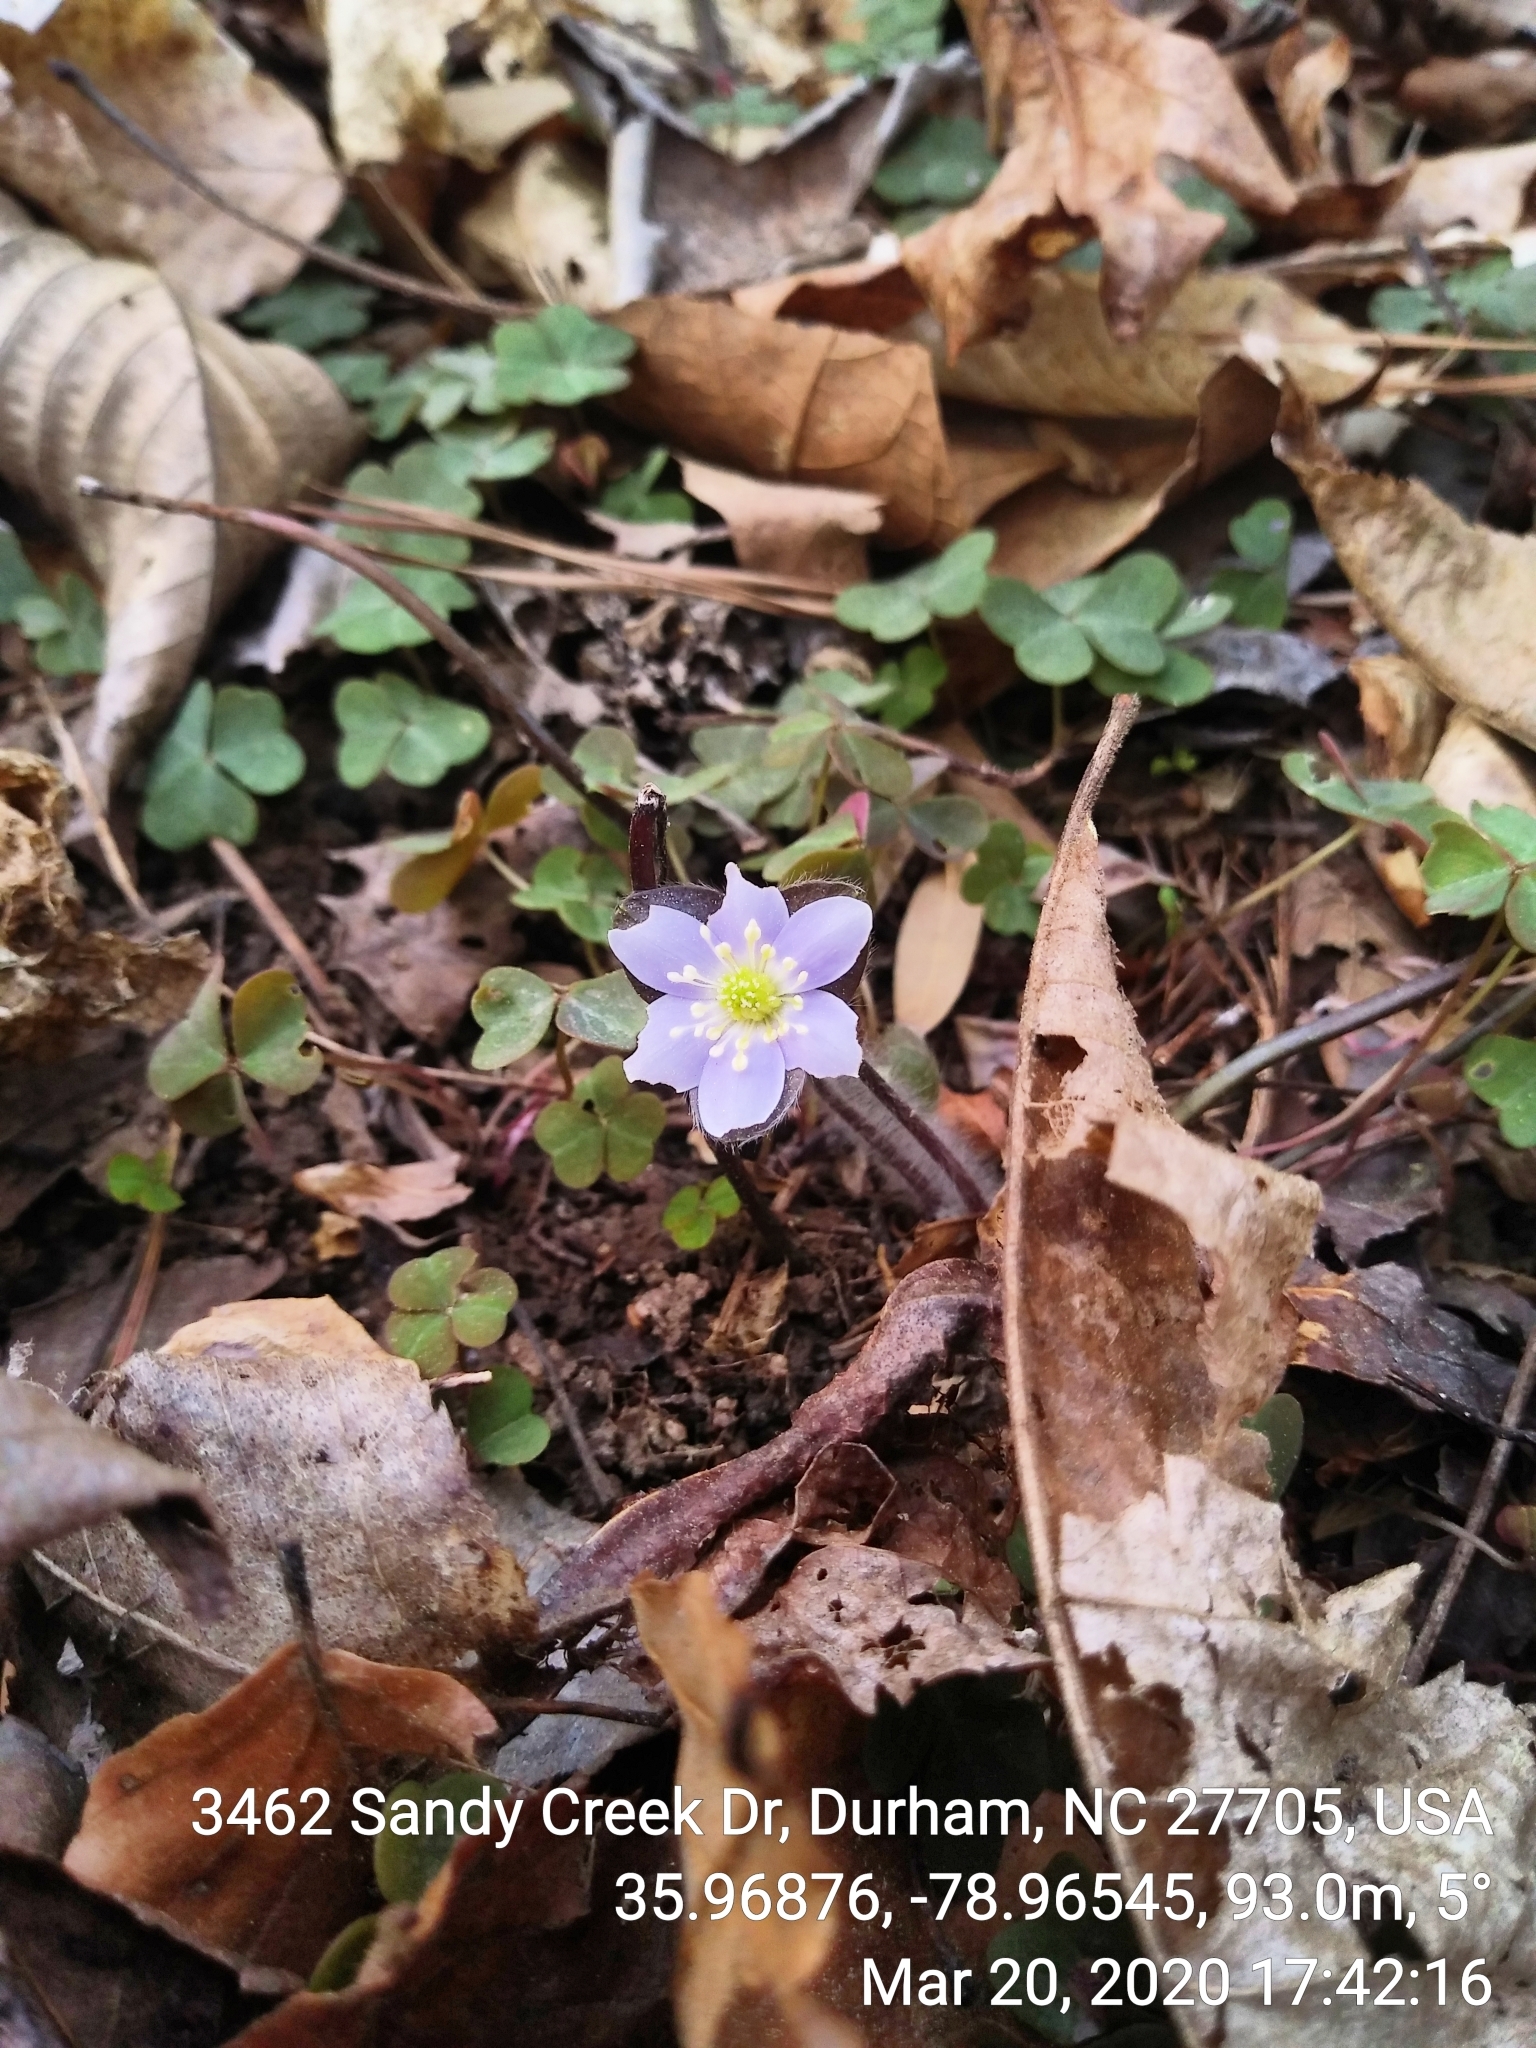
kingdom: Plantae
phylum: Tracheophyta
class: Magnoliopsida
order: Ranunculales
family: Ranunculaceae
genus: Hepatica
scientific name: Hepatica americana
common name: American hepatica
